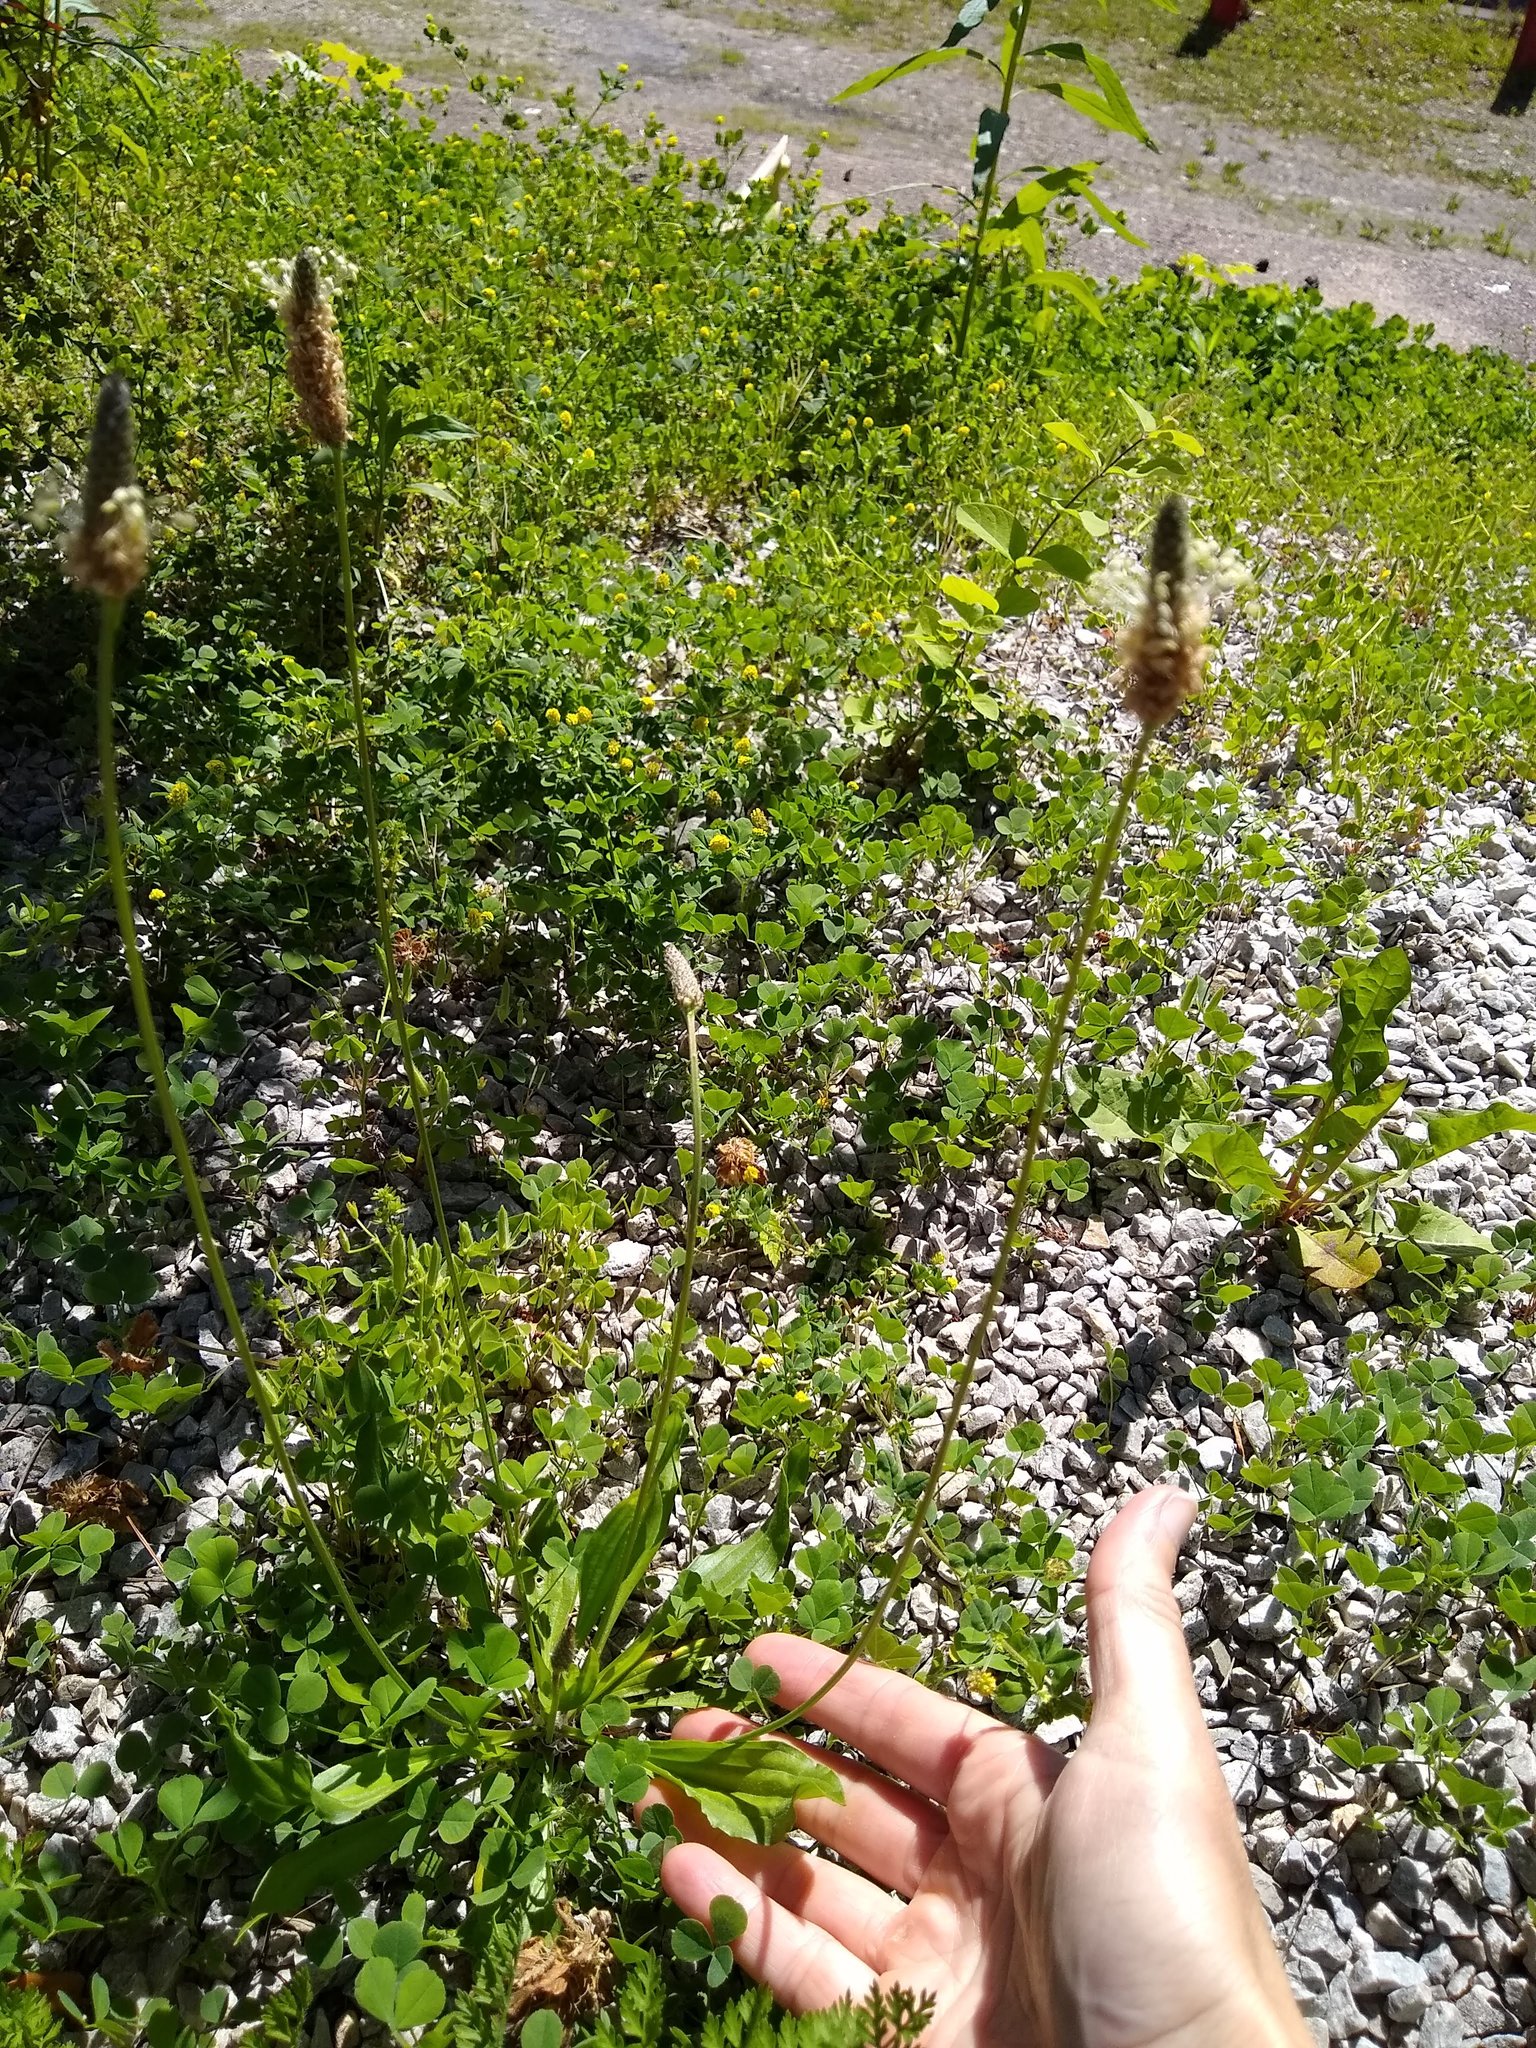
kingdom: Plantae
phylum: Tracheophyta
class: Magnoliopsida
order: Lamiales
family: Plantaginaceae
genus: Plantago
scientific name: Plantago lanceolata
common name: Ribwort plantain
